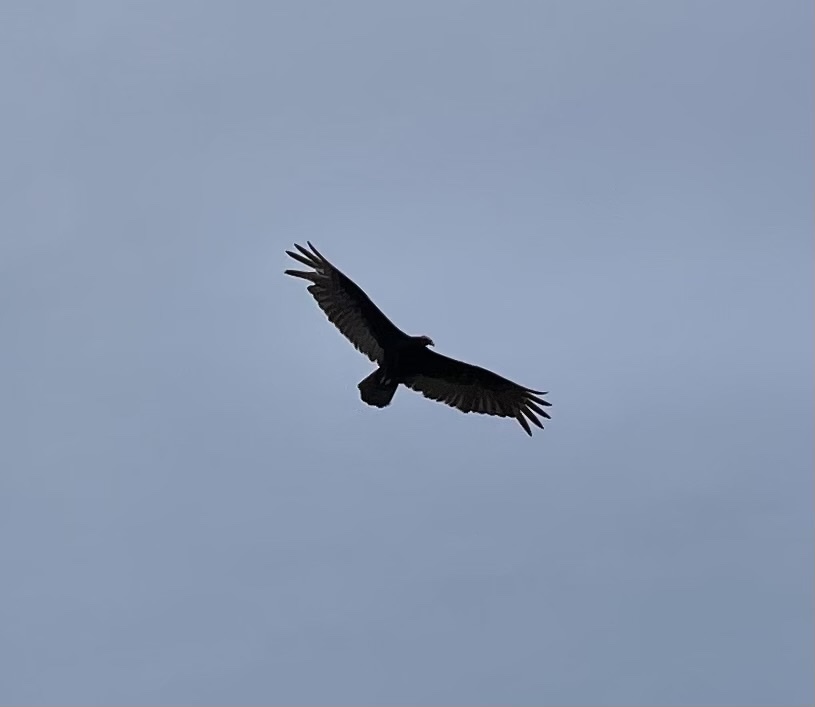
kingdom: Animalia
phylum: Chordata
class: Aves
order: Accipitriformes
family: Cathartidae
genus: Cathartes
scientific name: Cathartes aura
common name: Turkey vulture
